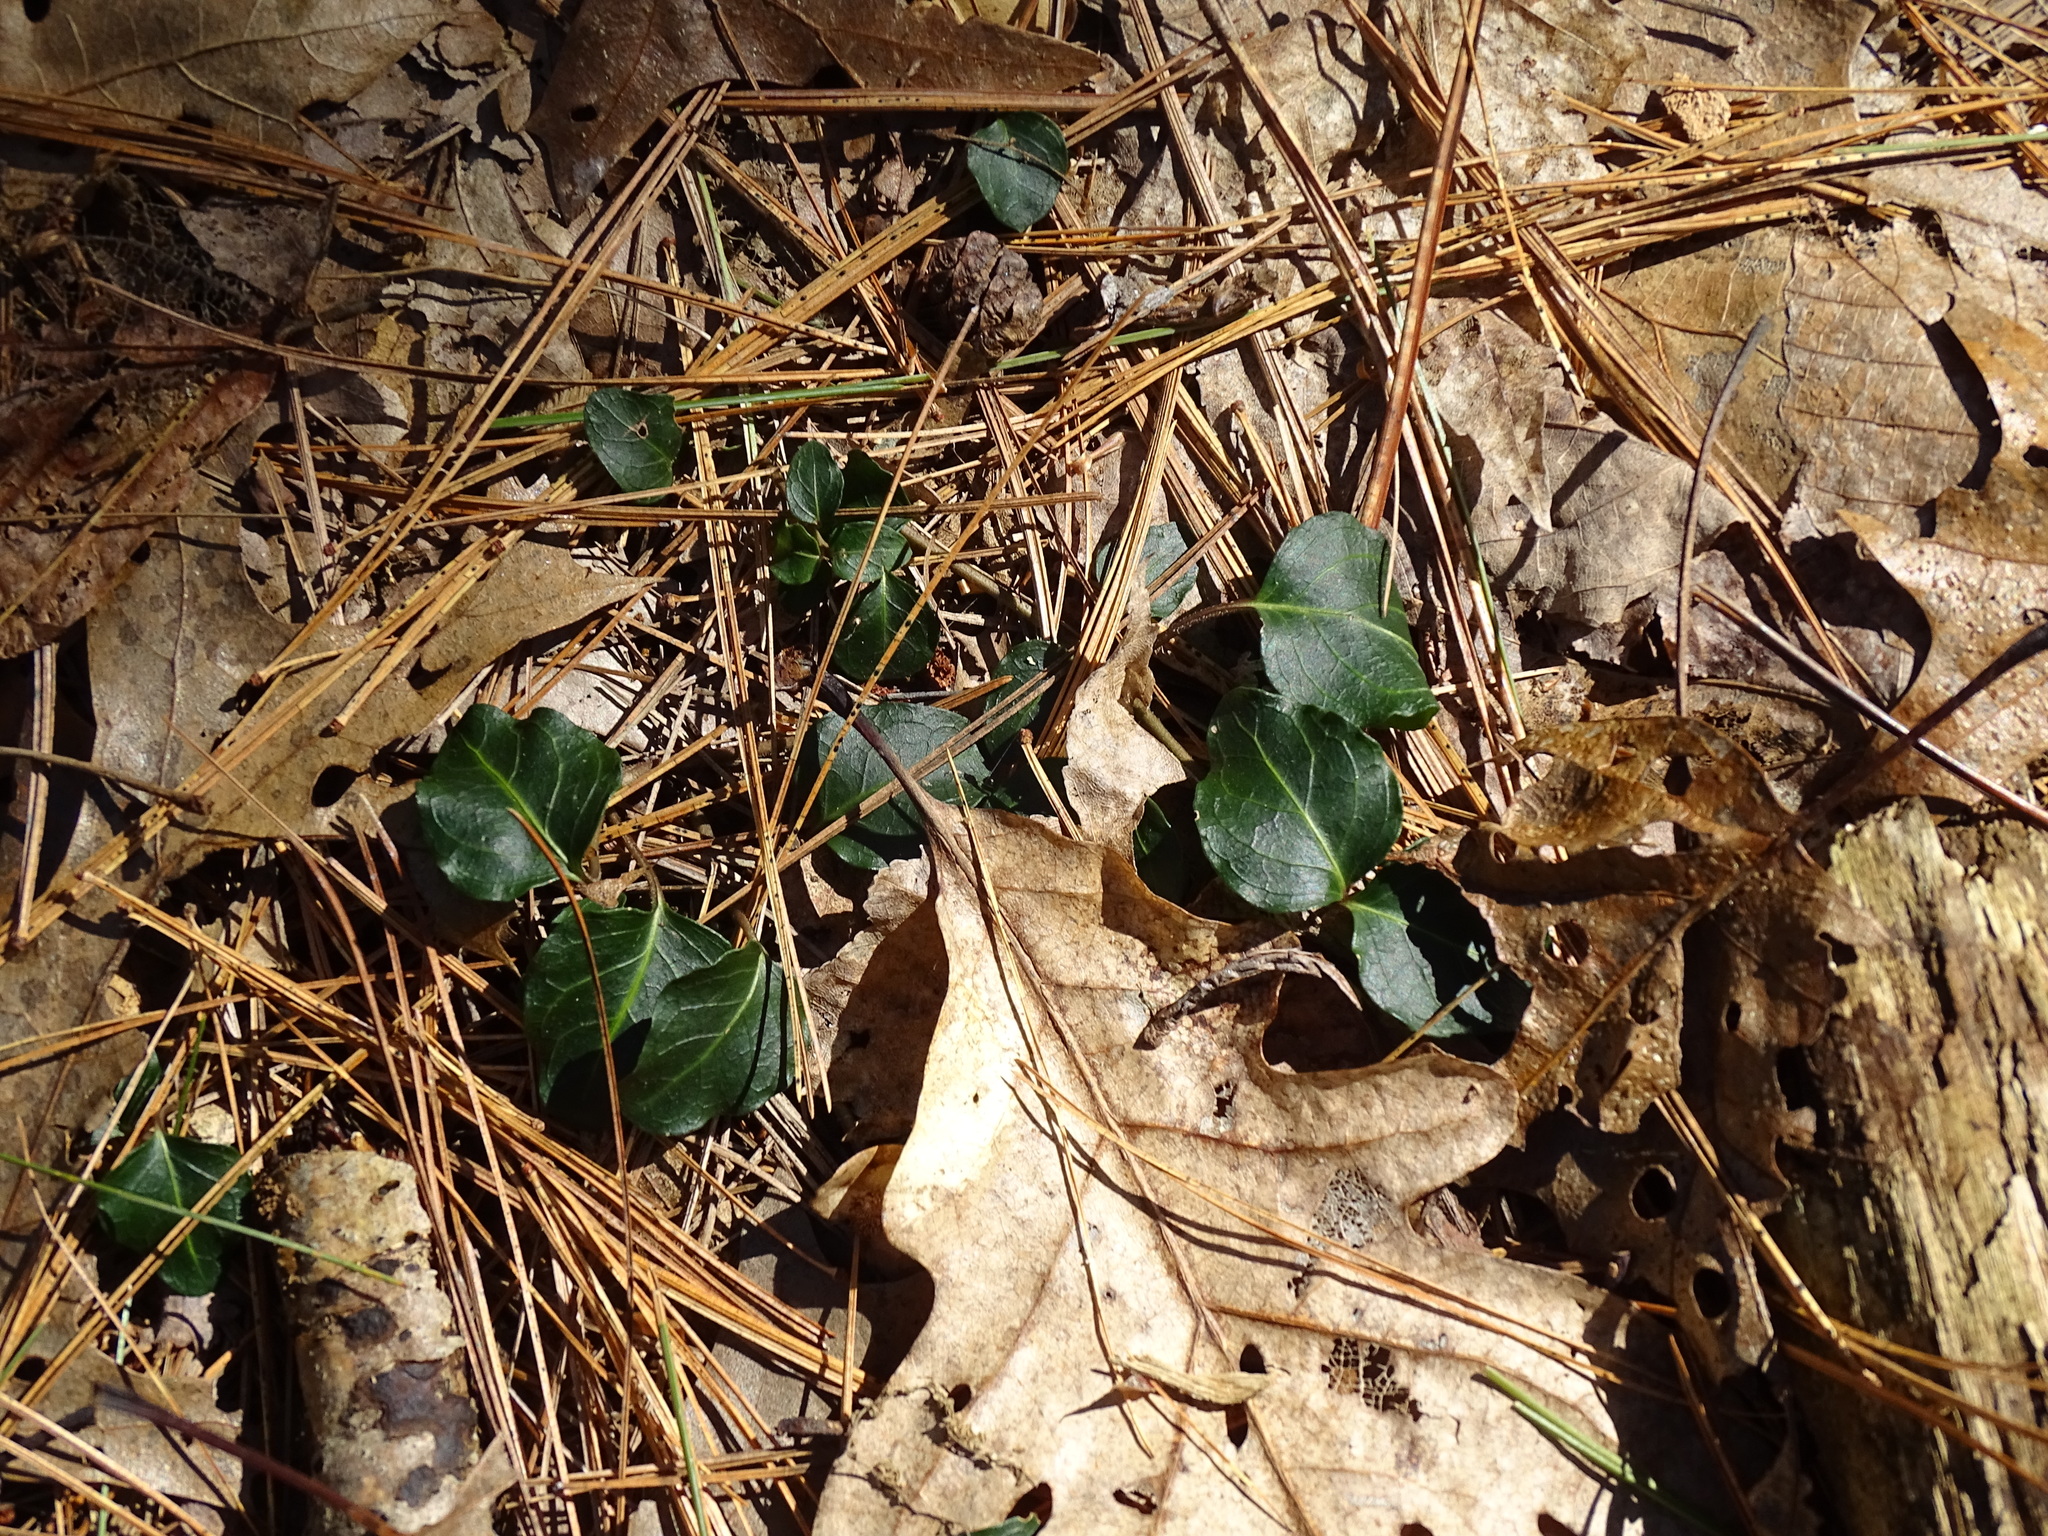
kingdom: Plantae
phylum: Tracheophyta
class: Magnoliopsida
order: Gentianales
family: Rubiaceae
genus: Mitchella
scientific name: Mitchella repens
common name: Partridge-berry
